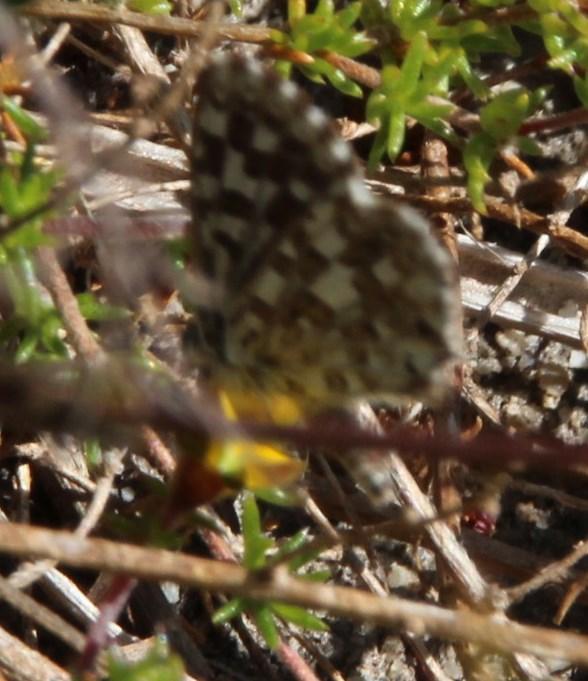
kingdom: Animalia
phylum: Arthropoda
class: Insecta
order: Lepidoptera
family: Lycaenidae
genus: Tarucus
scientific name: Tarucus thespis
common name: Vivid dotted blue
